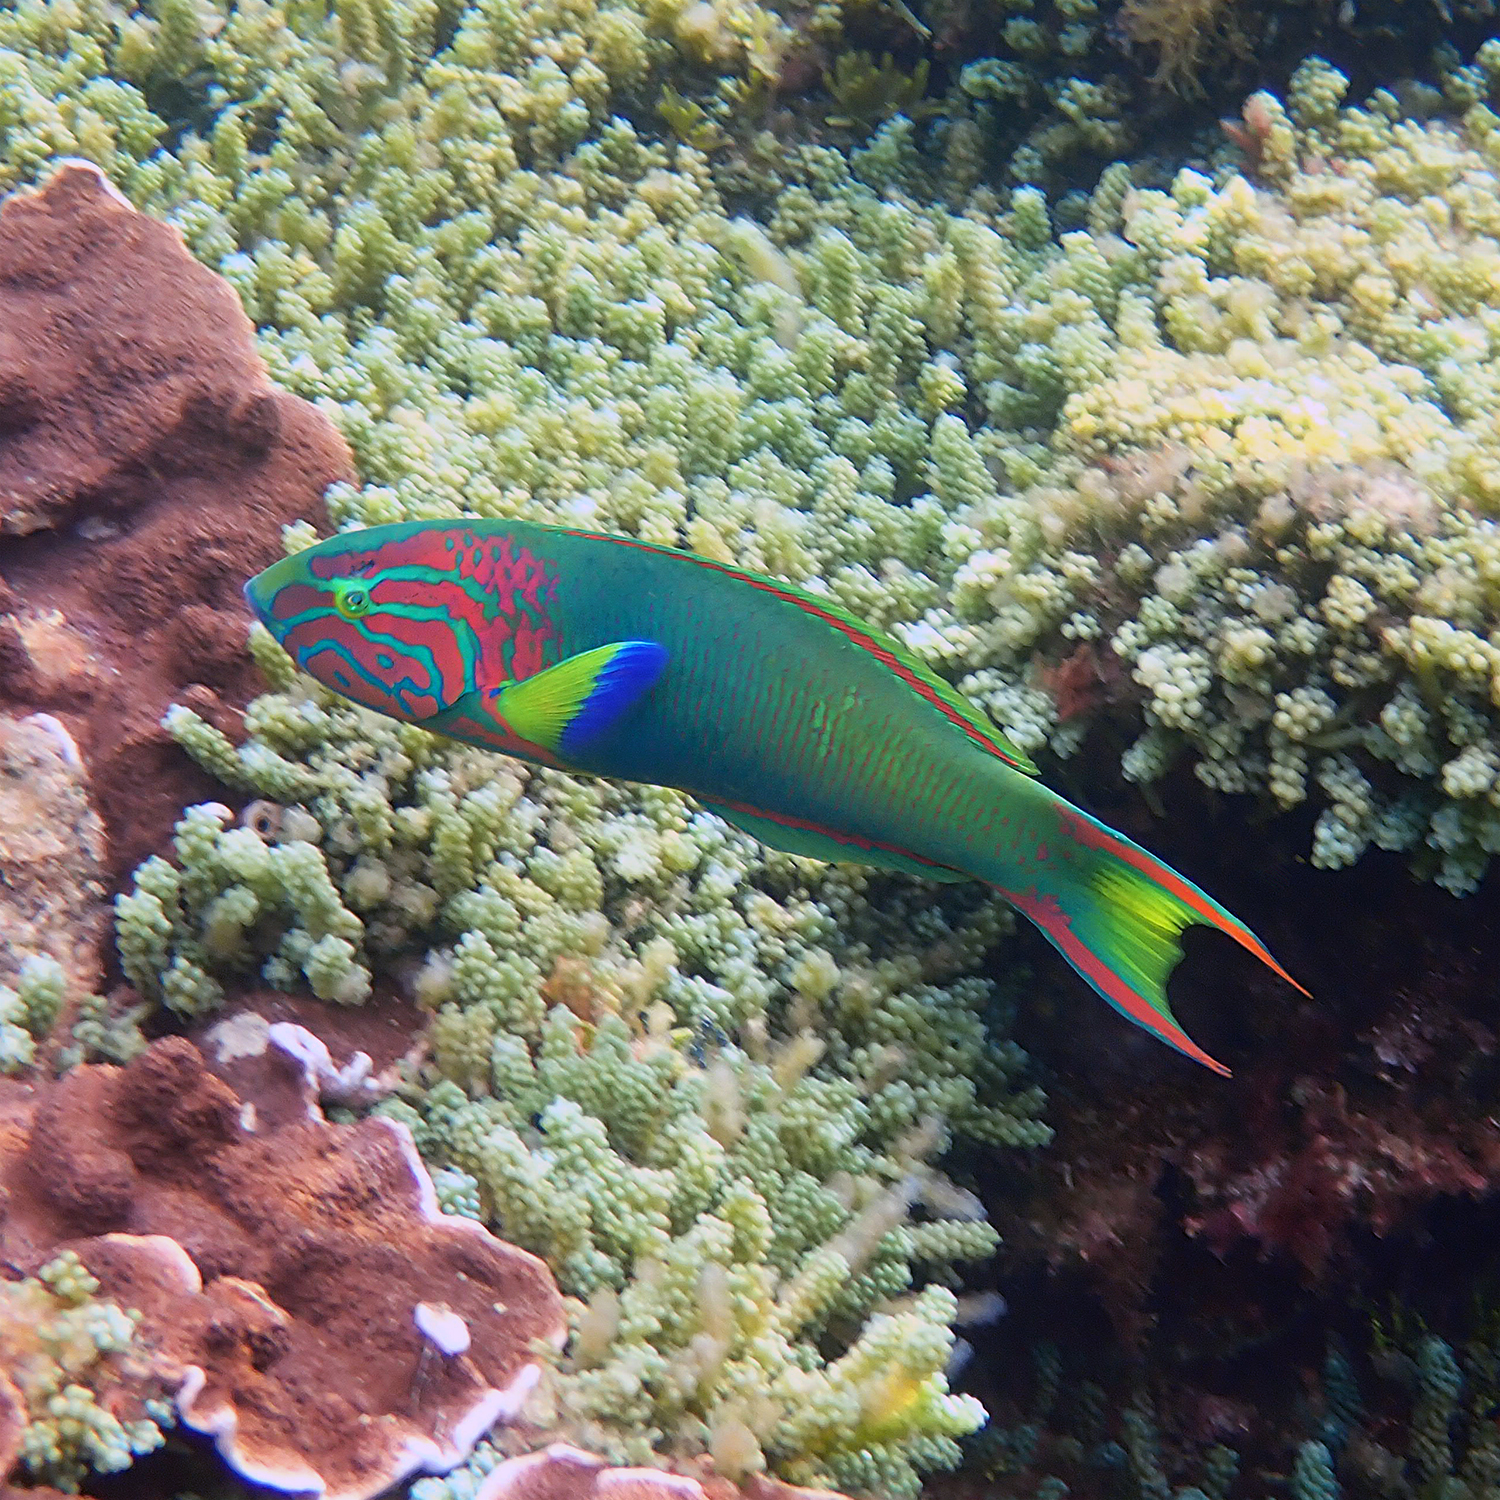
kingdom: Animalia
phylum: Chordata
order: Perciformes
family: Labridae
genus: Thalassoma
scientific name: Thalassoma lutescens
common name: Green moon wrasse
